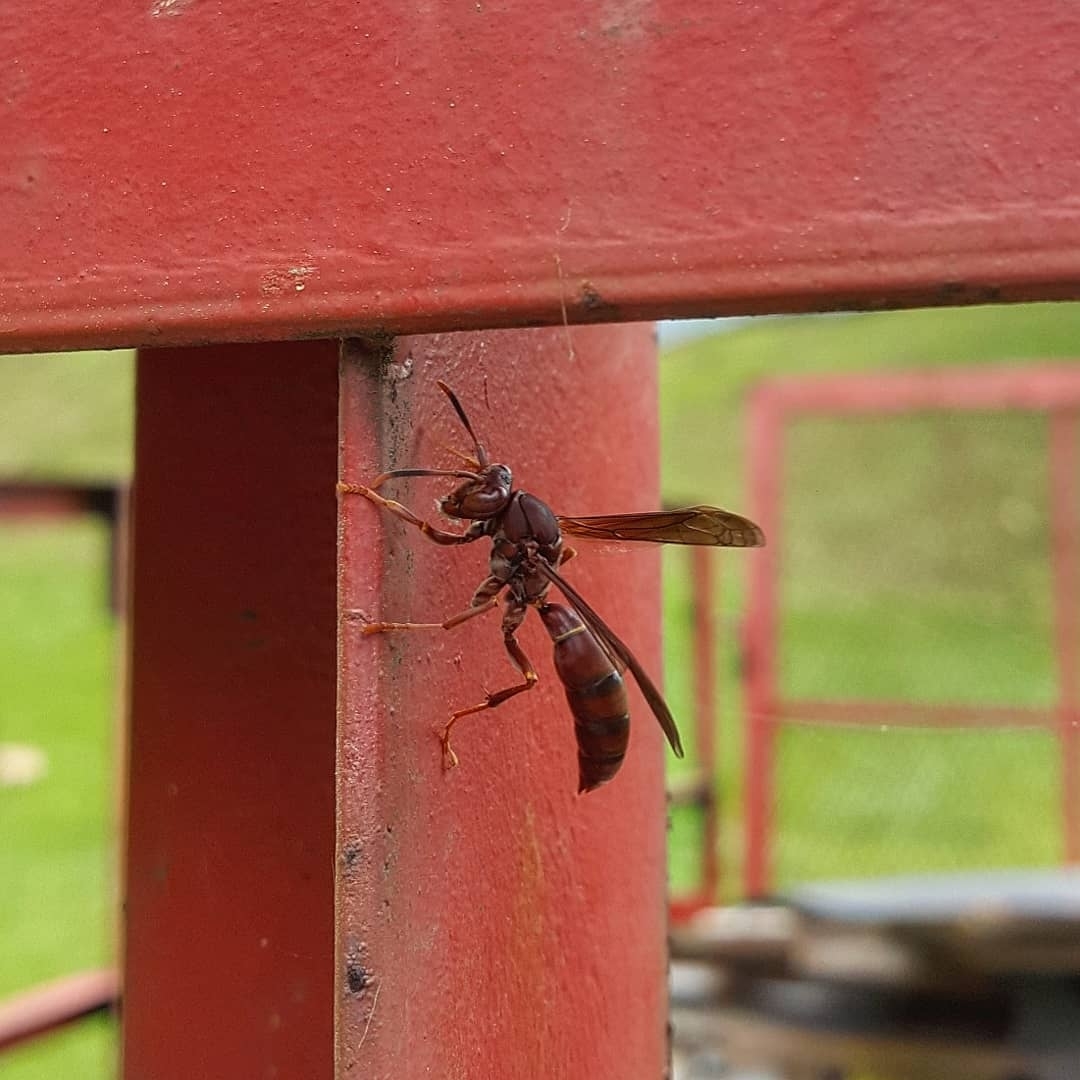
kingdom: Animalia
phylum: Arthropoda
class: Insecta
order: Hymenoptera
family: Eumenidae
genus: Polistes
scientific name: Polistes veracrucis
